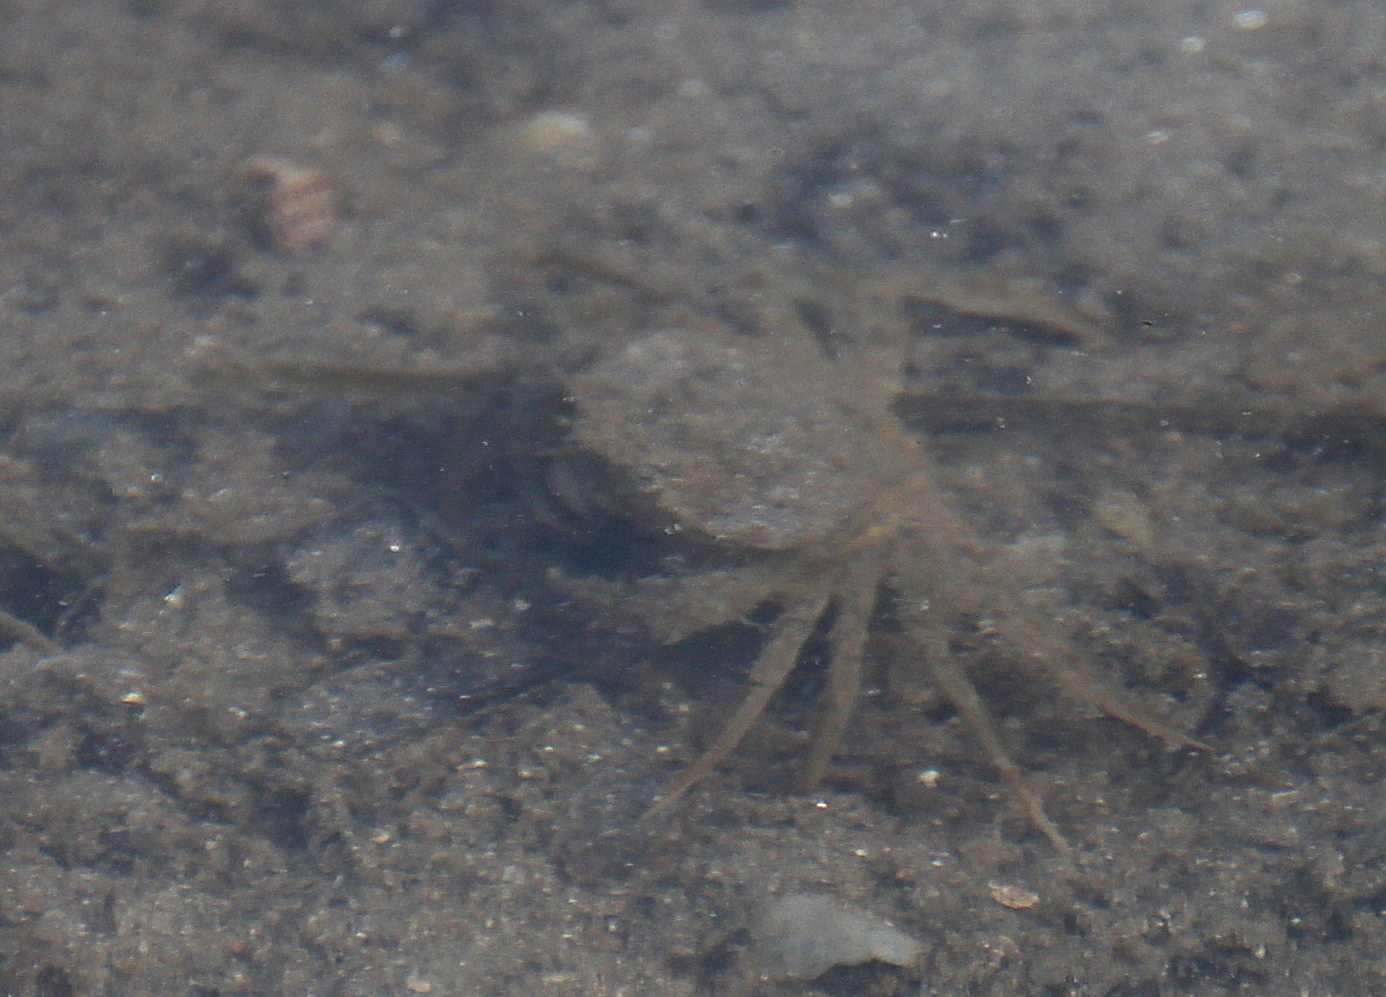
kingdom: Animalia
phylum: Arthropoda
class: Malacostraca
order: Decapoda
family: Carcinidae
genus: Carcinus
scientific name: Carcinus aestuarii
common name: Mediterranean green crab
